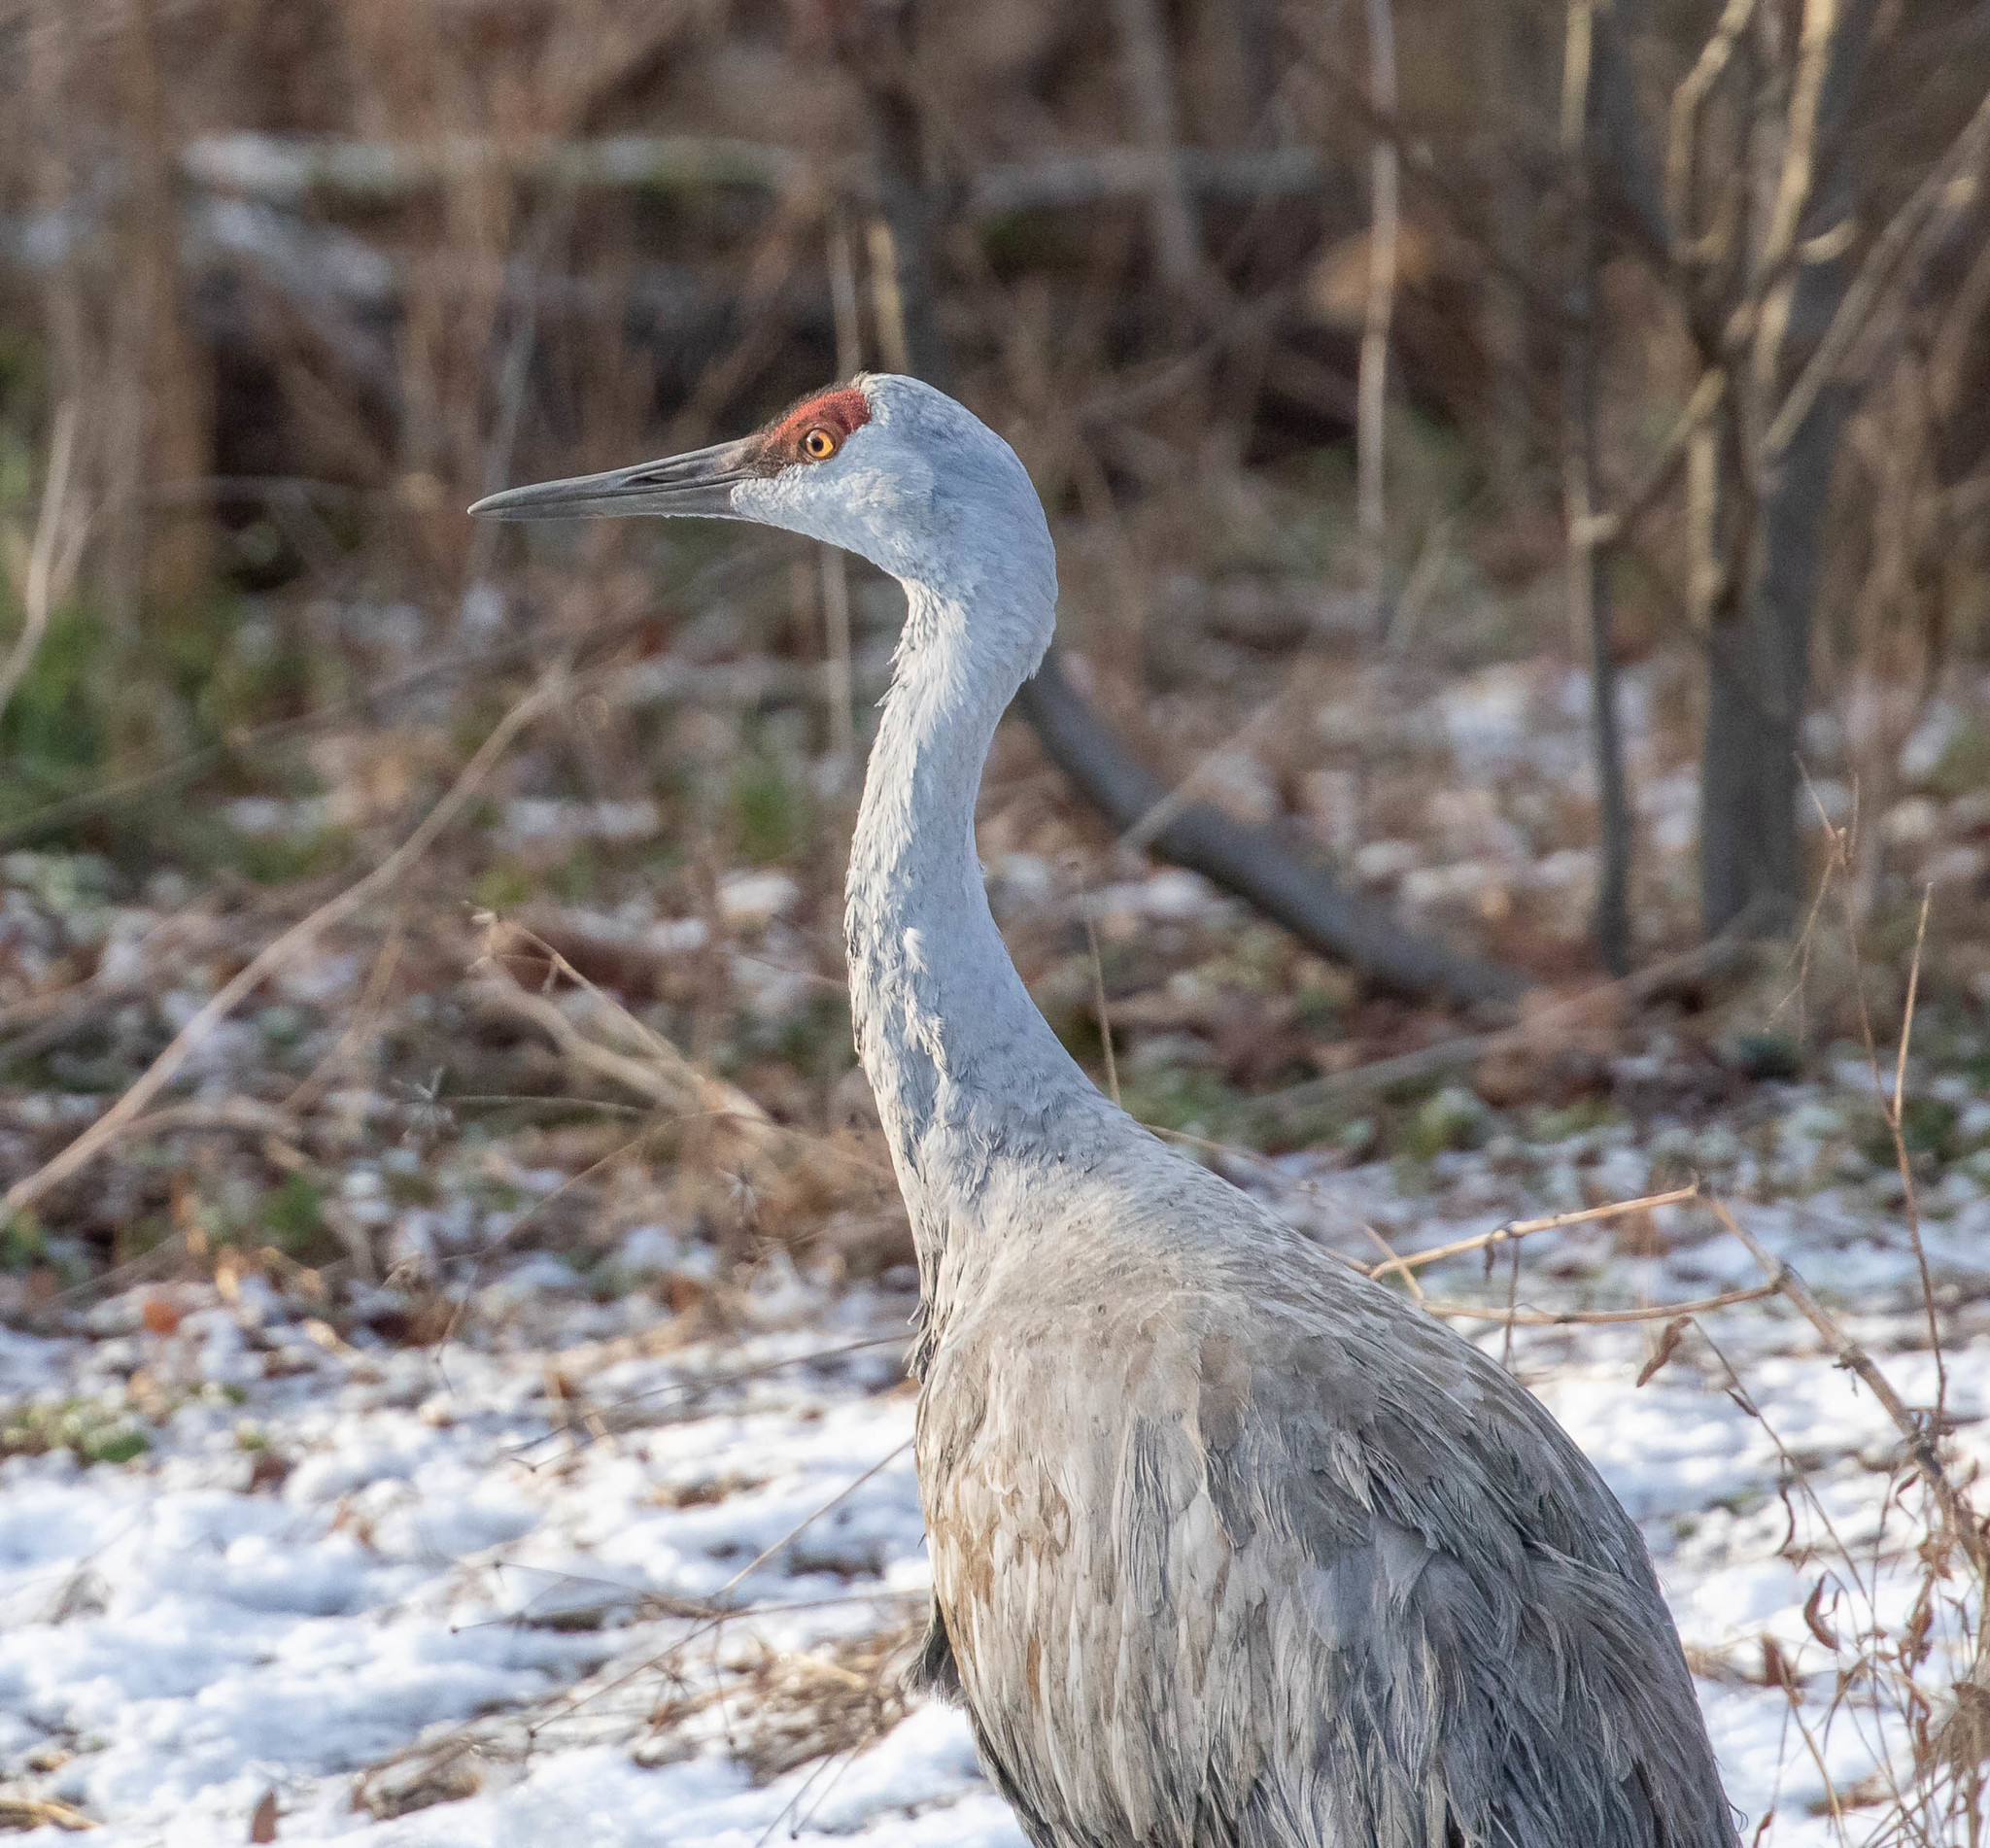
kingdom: Animalia
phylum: Chordata
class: Aves
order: Gruiformes
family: Gruidae
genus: Grus
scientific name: Grus canadensis
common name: Sandhill crane
